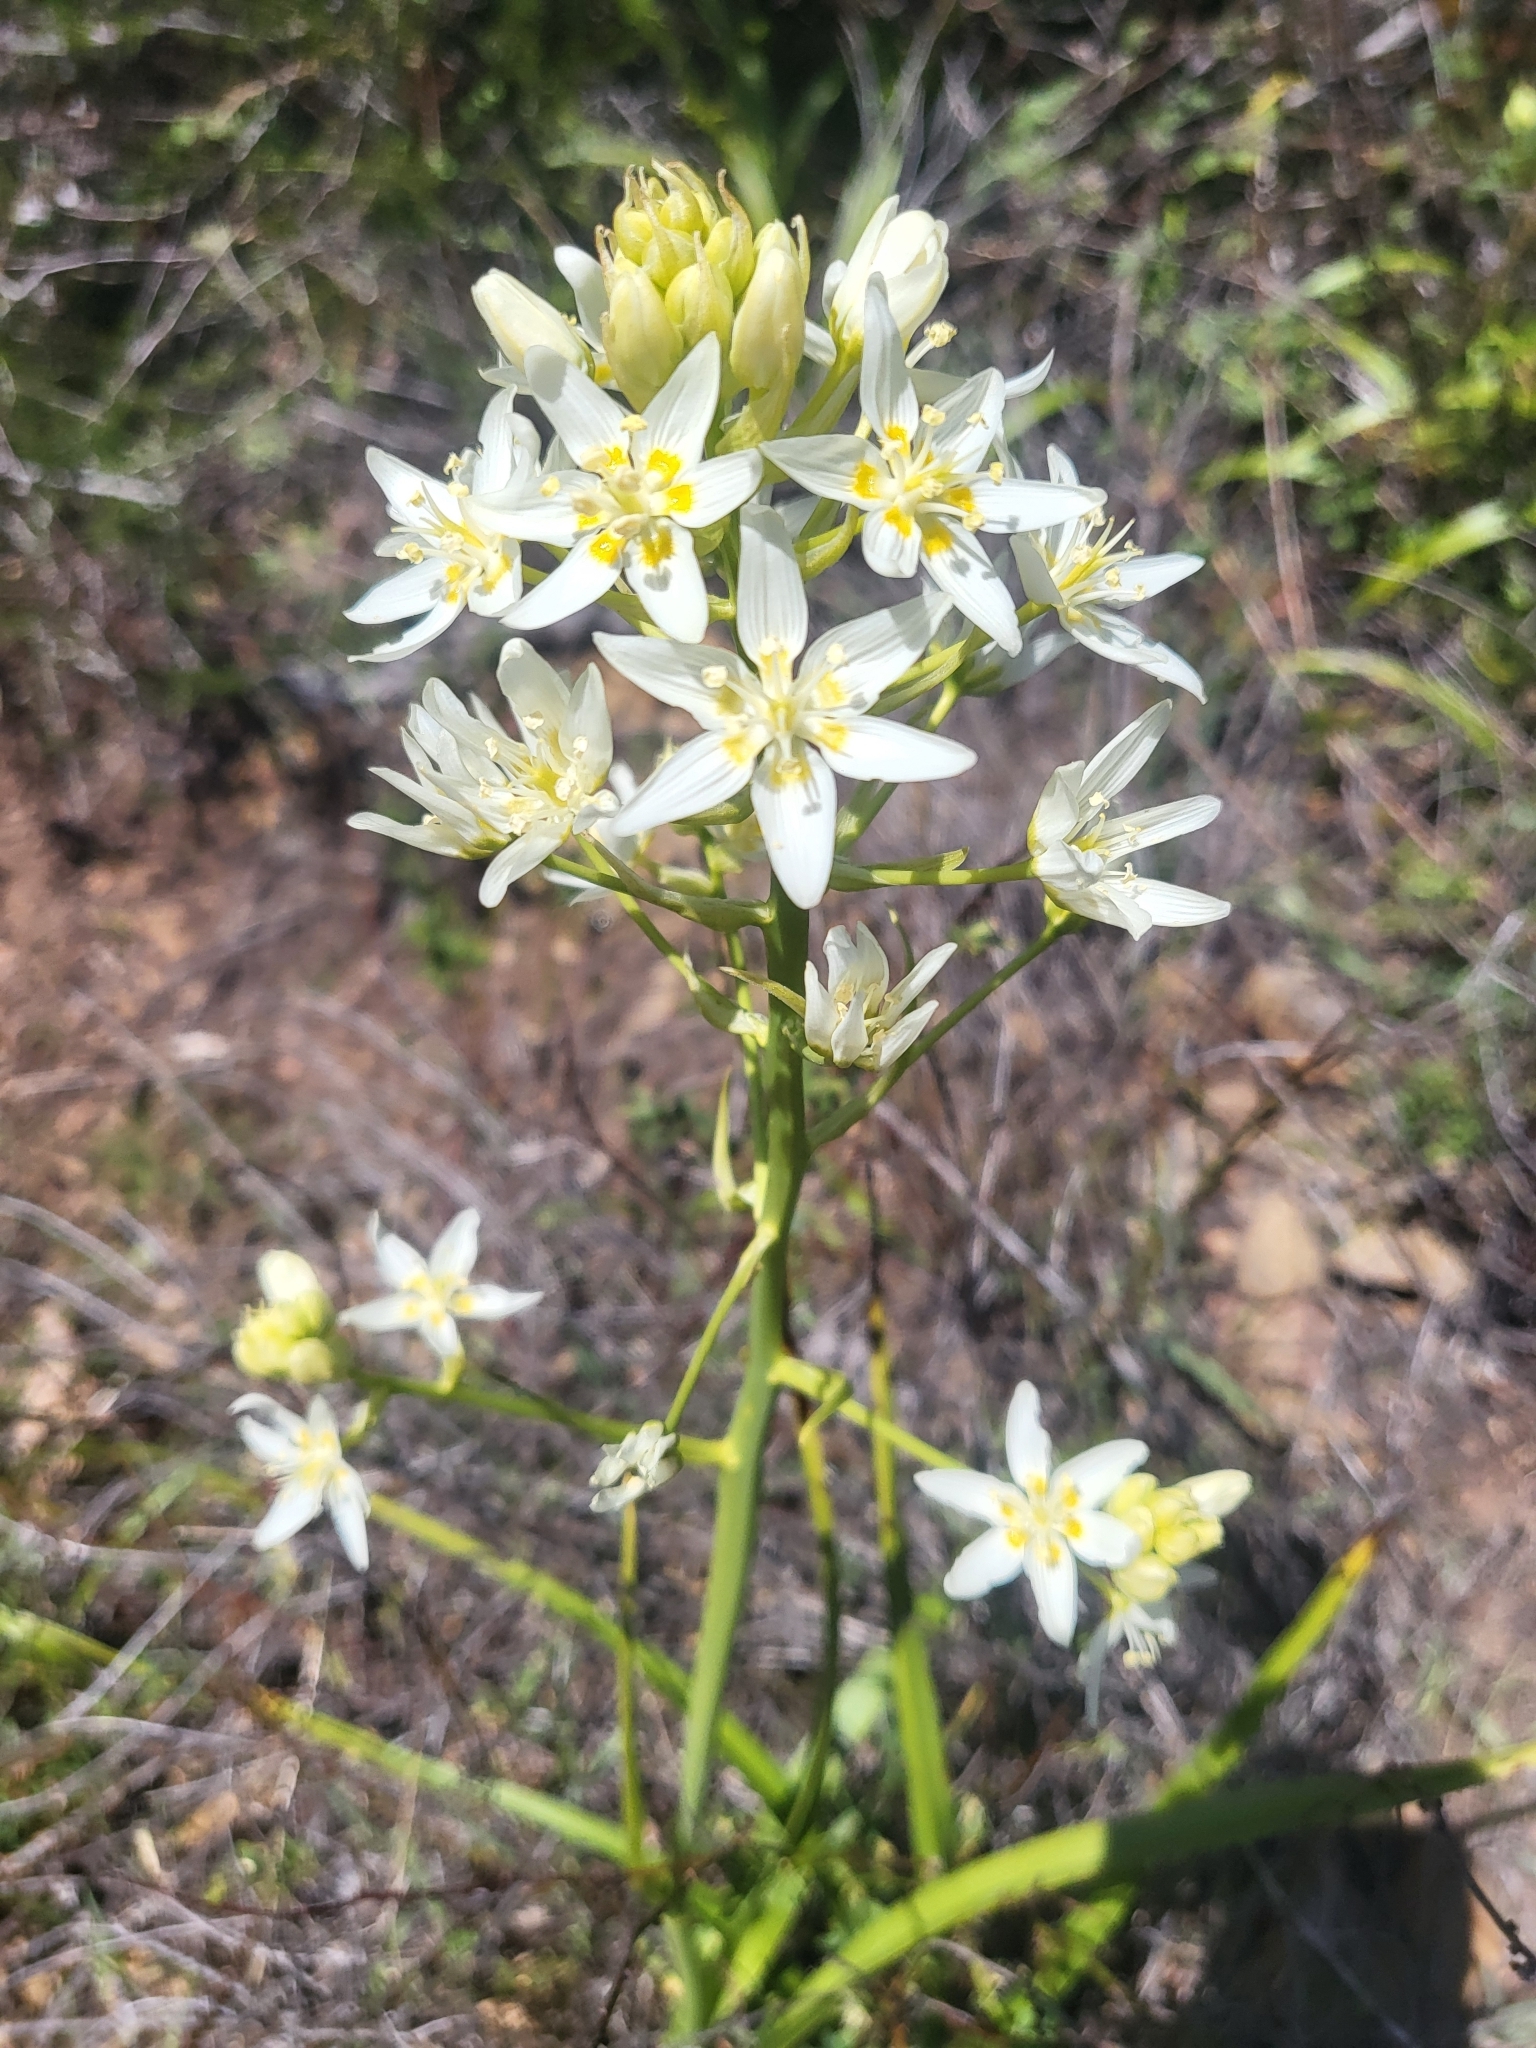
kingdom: Plantae
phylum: Tracheophyta
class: Liliopsida
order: Liliales
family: Melanthiaceae
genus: Toxicoscordion
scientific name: Toxicoscordion fremontii
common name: Fremont's death camas
